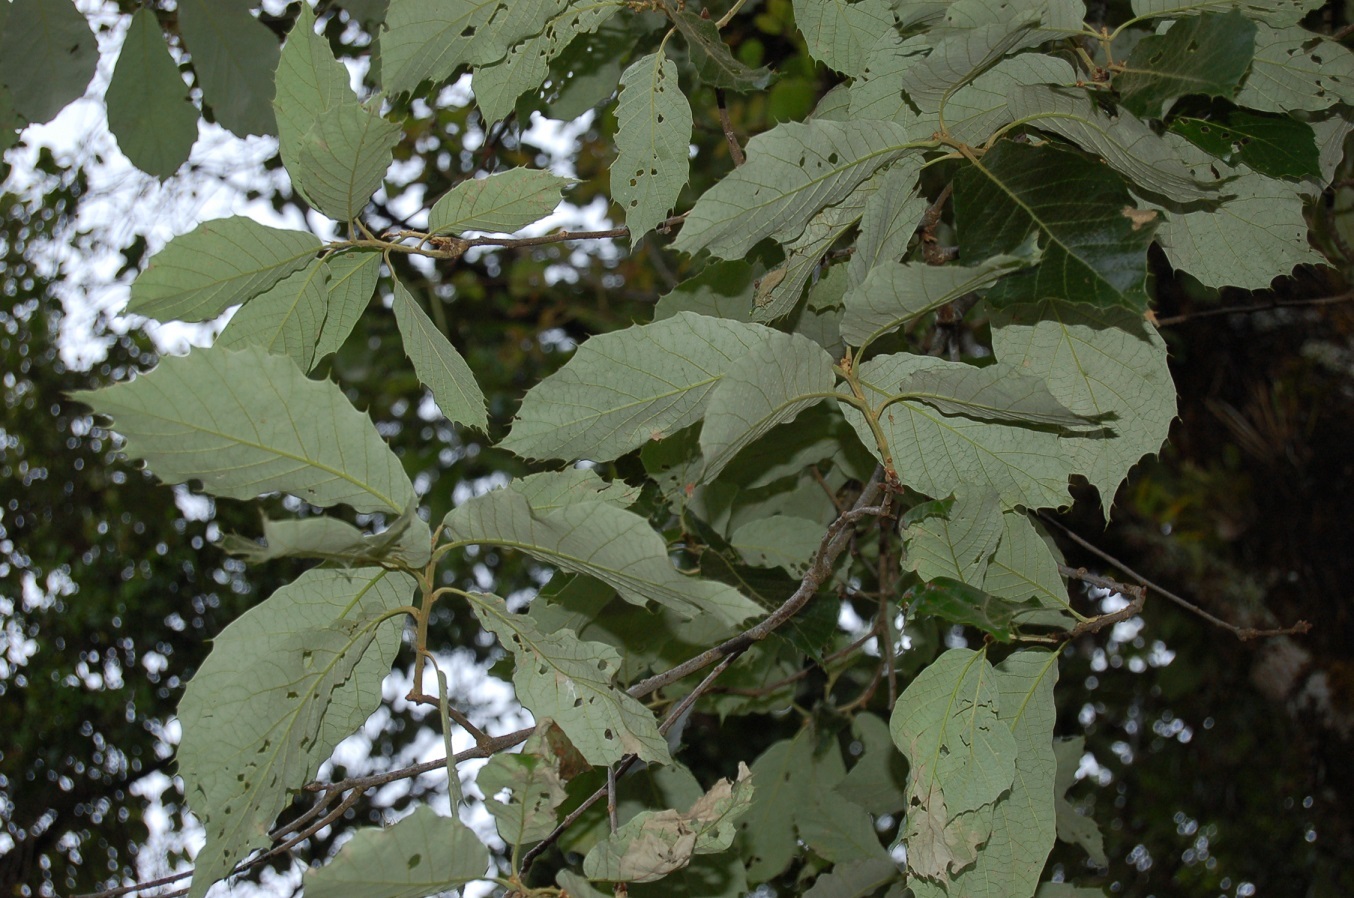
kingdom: Plantae
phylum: Tracheophyta
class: Magnoliopsida
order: Fagales
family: Fagaceae
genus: Quercus
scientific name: Quercus calophylla
